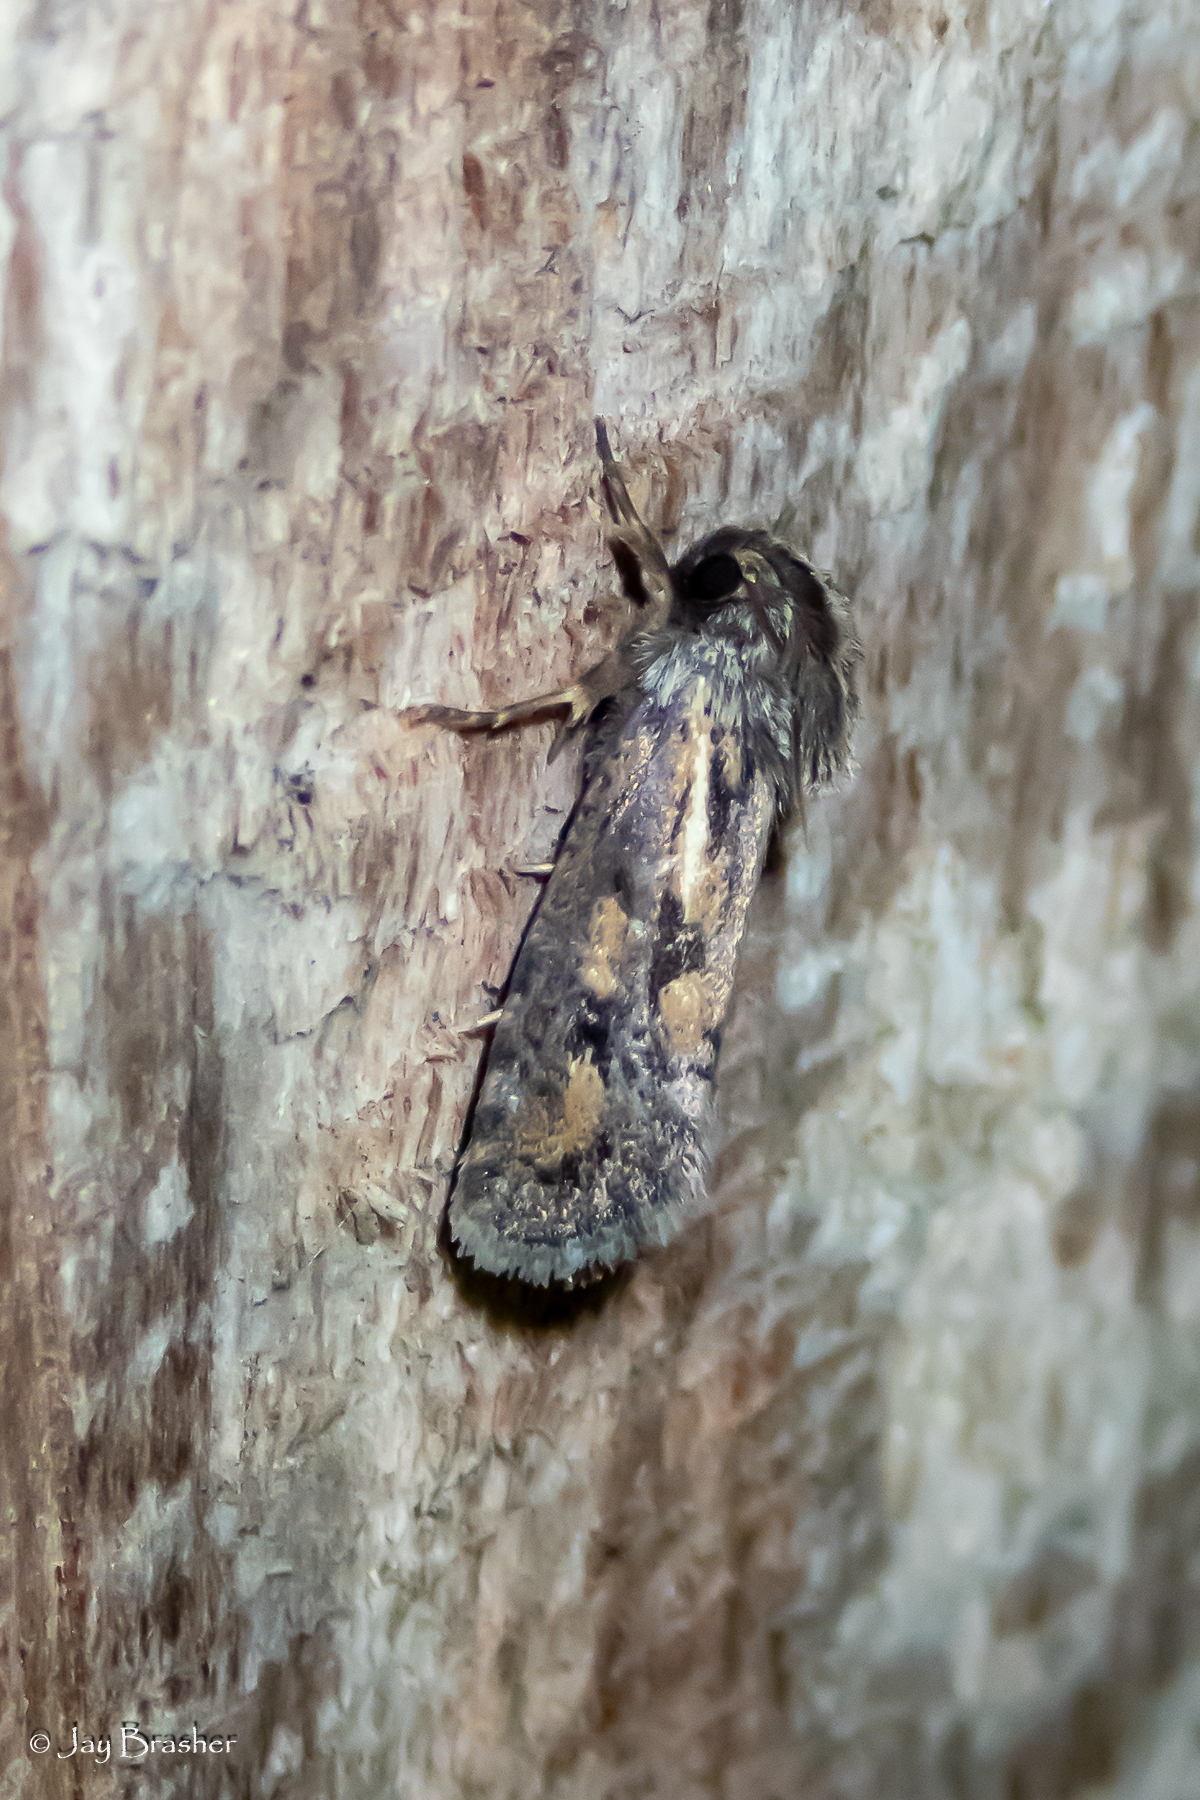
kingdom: Animalia
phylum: Arthropoda
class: Insecta
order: Lepidoptera
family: Tineidae
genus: Acrolophus
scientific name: Acrolophus popeanella
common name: Clemens' grass tubeworm moth
